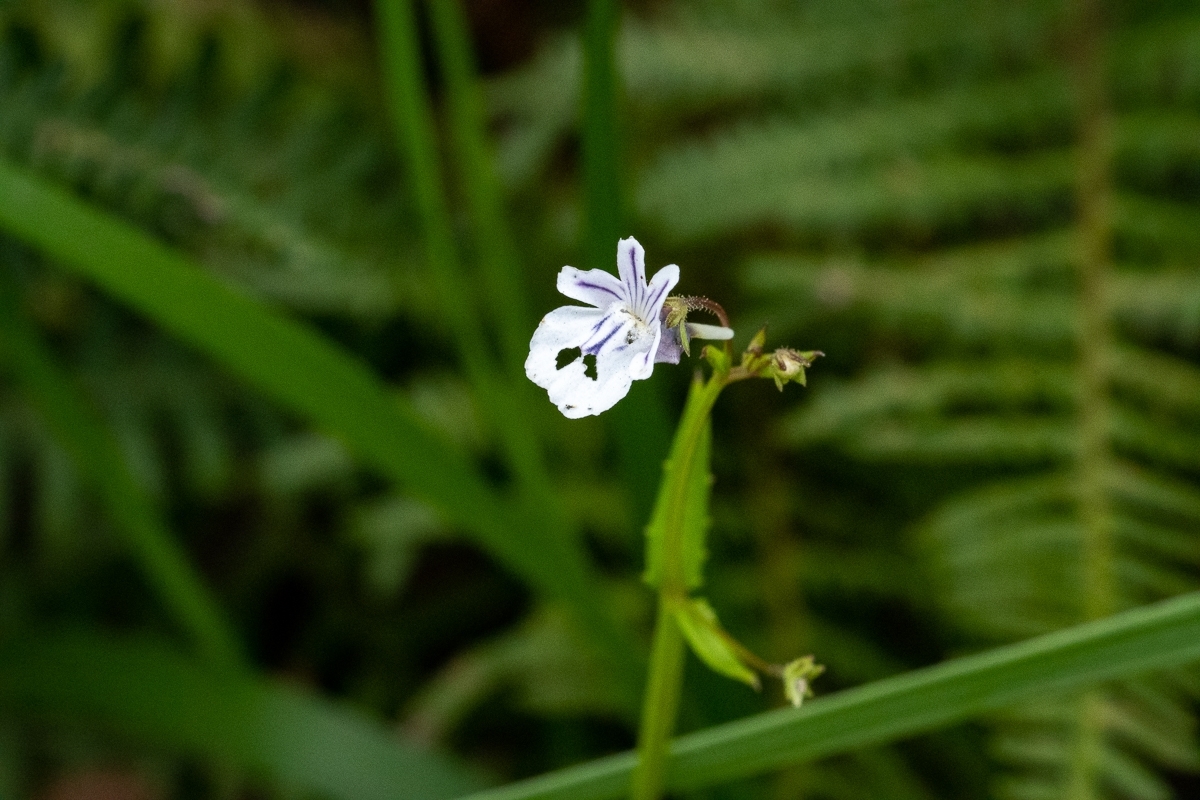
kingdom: Plantae
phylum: Tracheophyta
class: Magnoliopsida
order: Lamiales
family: Scrophulariaceae
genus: Nemesia
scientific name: Nemesia diffusa
